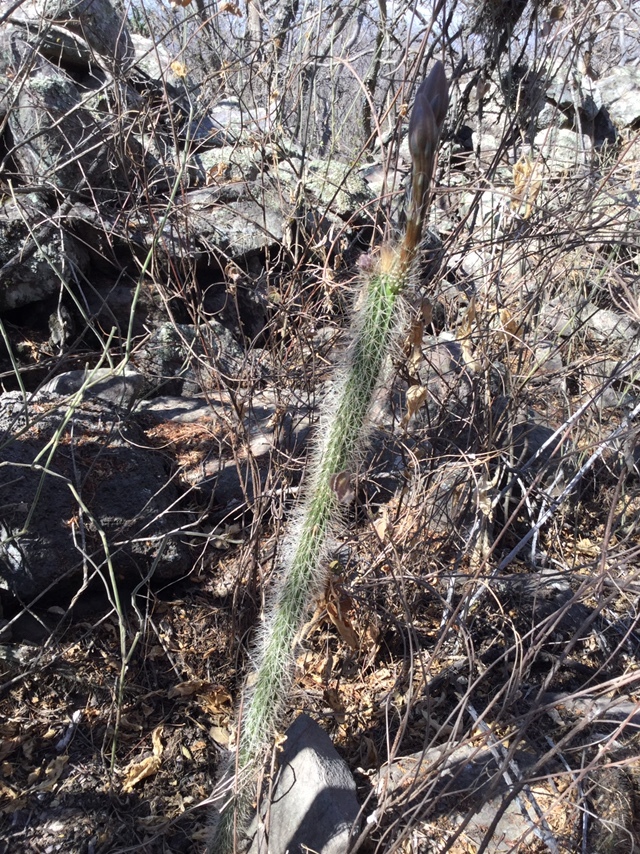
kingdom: Plantae
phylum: Tracheophyta
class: Magnoliopsida
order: Caryophyllales
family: Cactaceae
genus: Peniocereus
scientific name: Peniocereus serpentinus
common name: Serpent cactus
